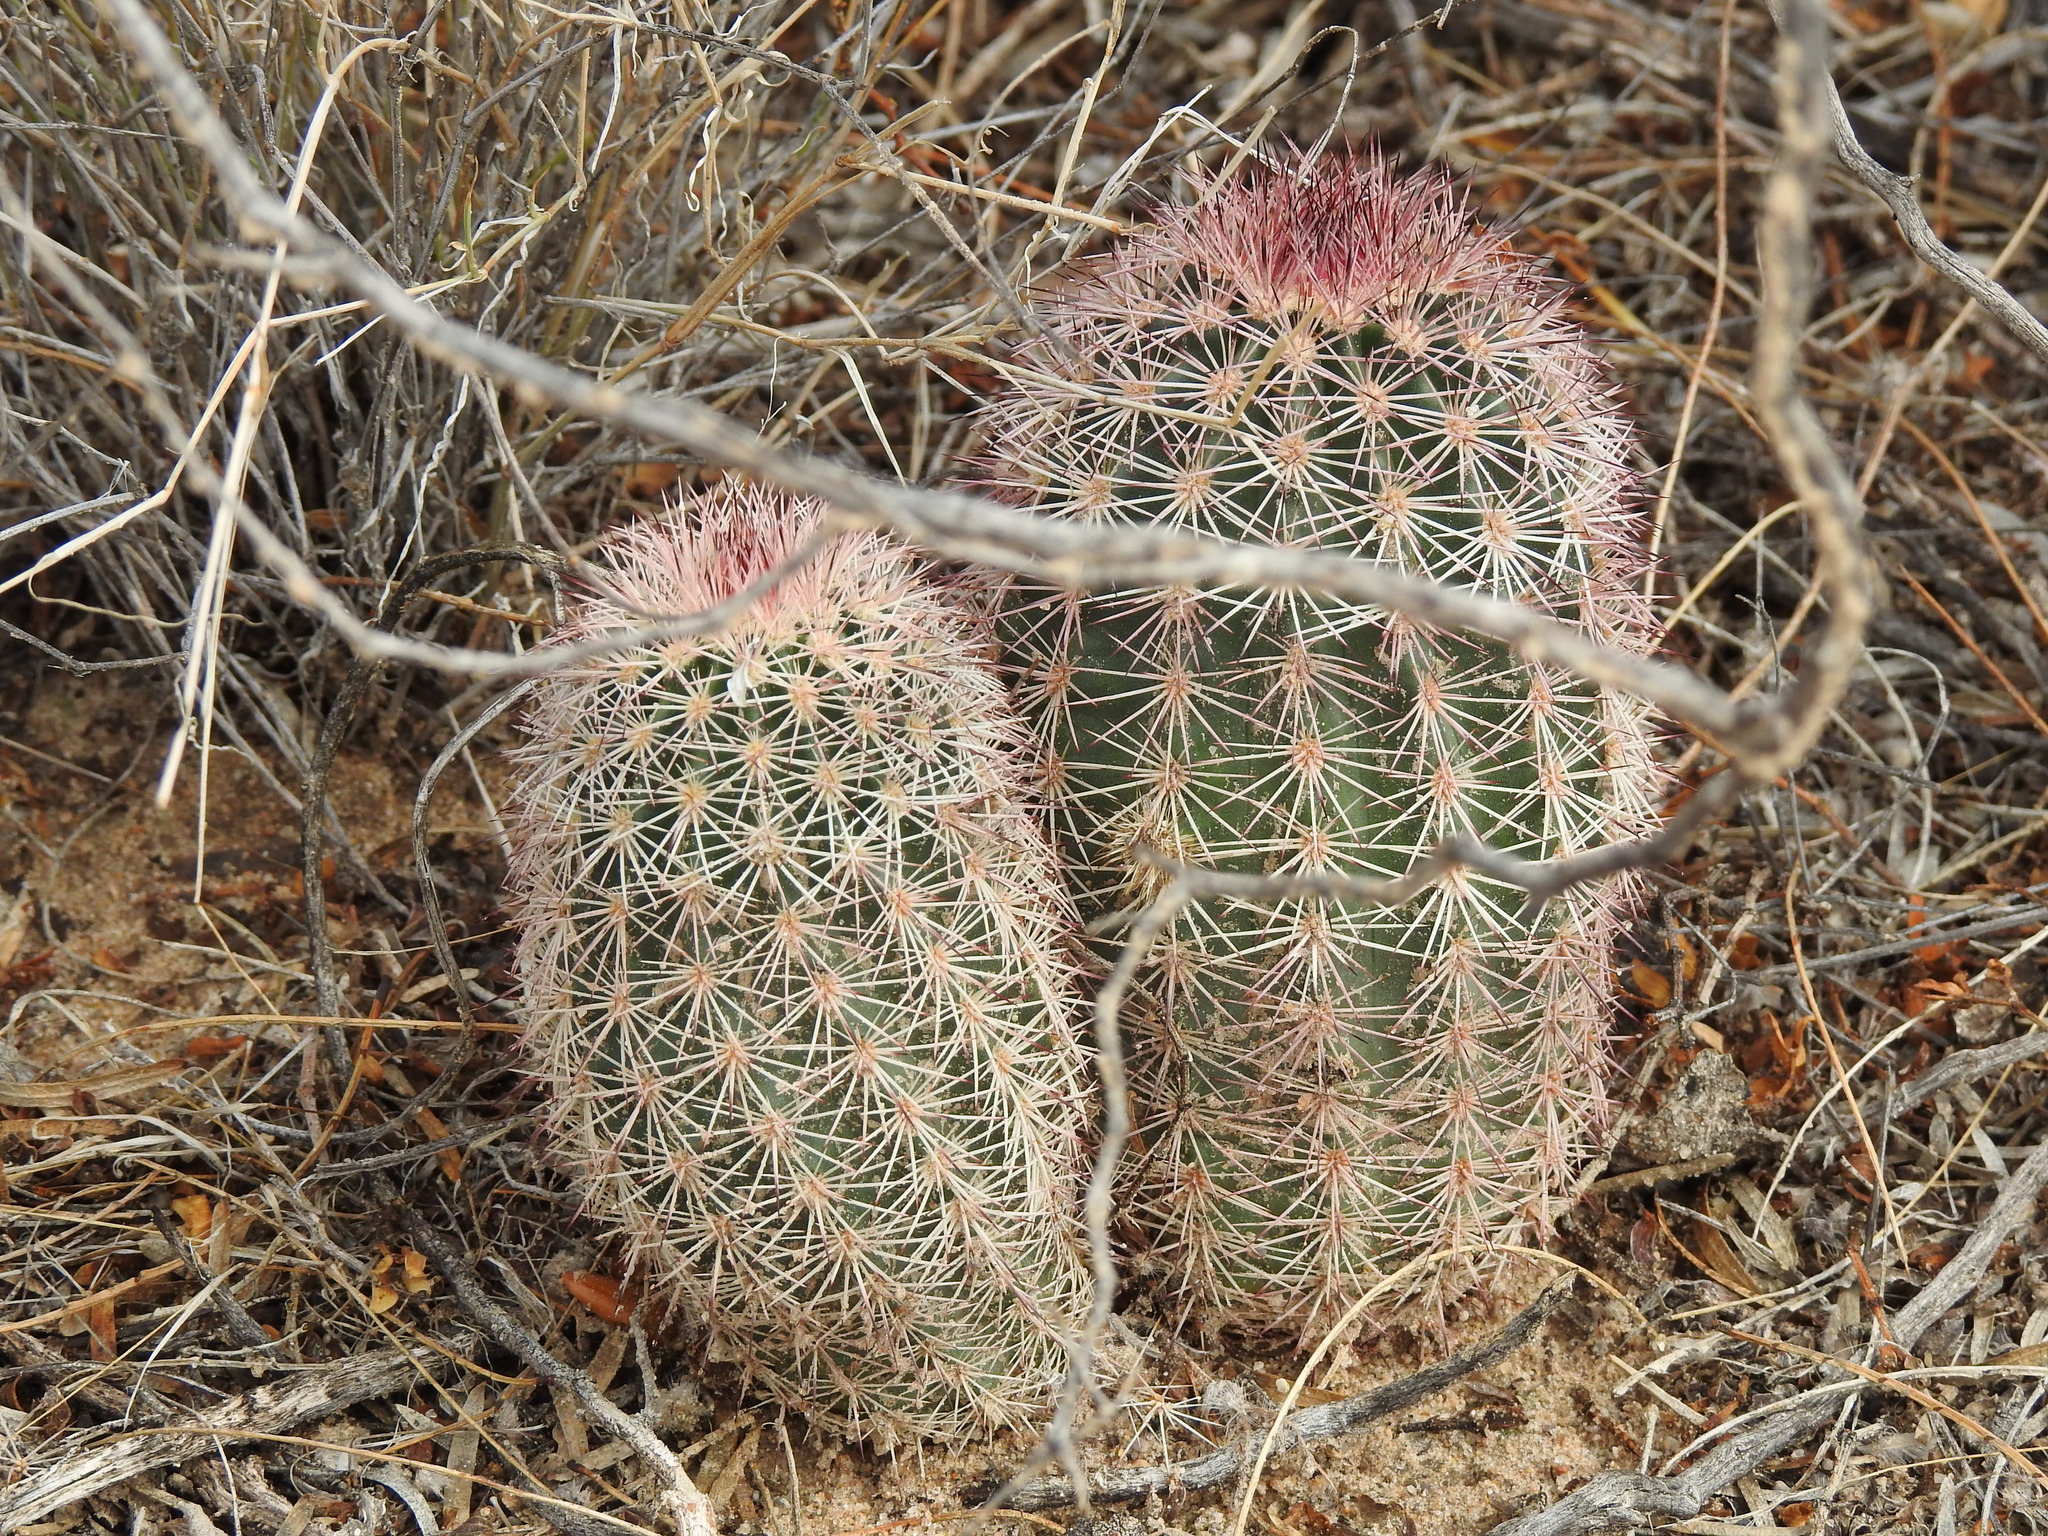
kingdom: Plantae
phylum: Tracheophyta
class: Magnoliopsida
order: Caryophyllales
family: Cactaceae
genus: Echinocereus
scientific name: Echinocereus dasyacanthus
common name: Spiny hedgehog cactus
